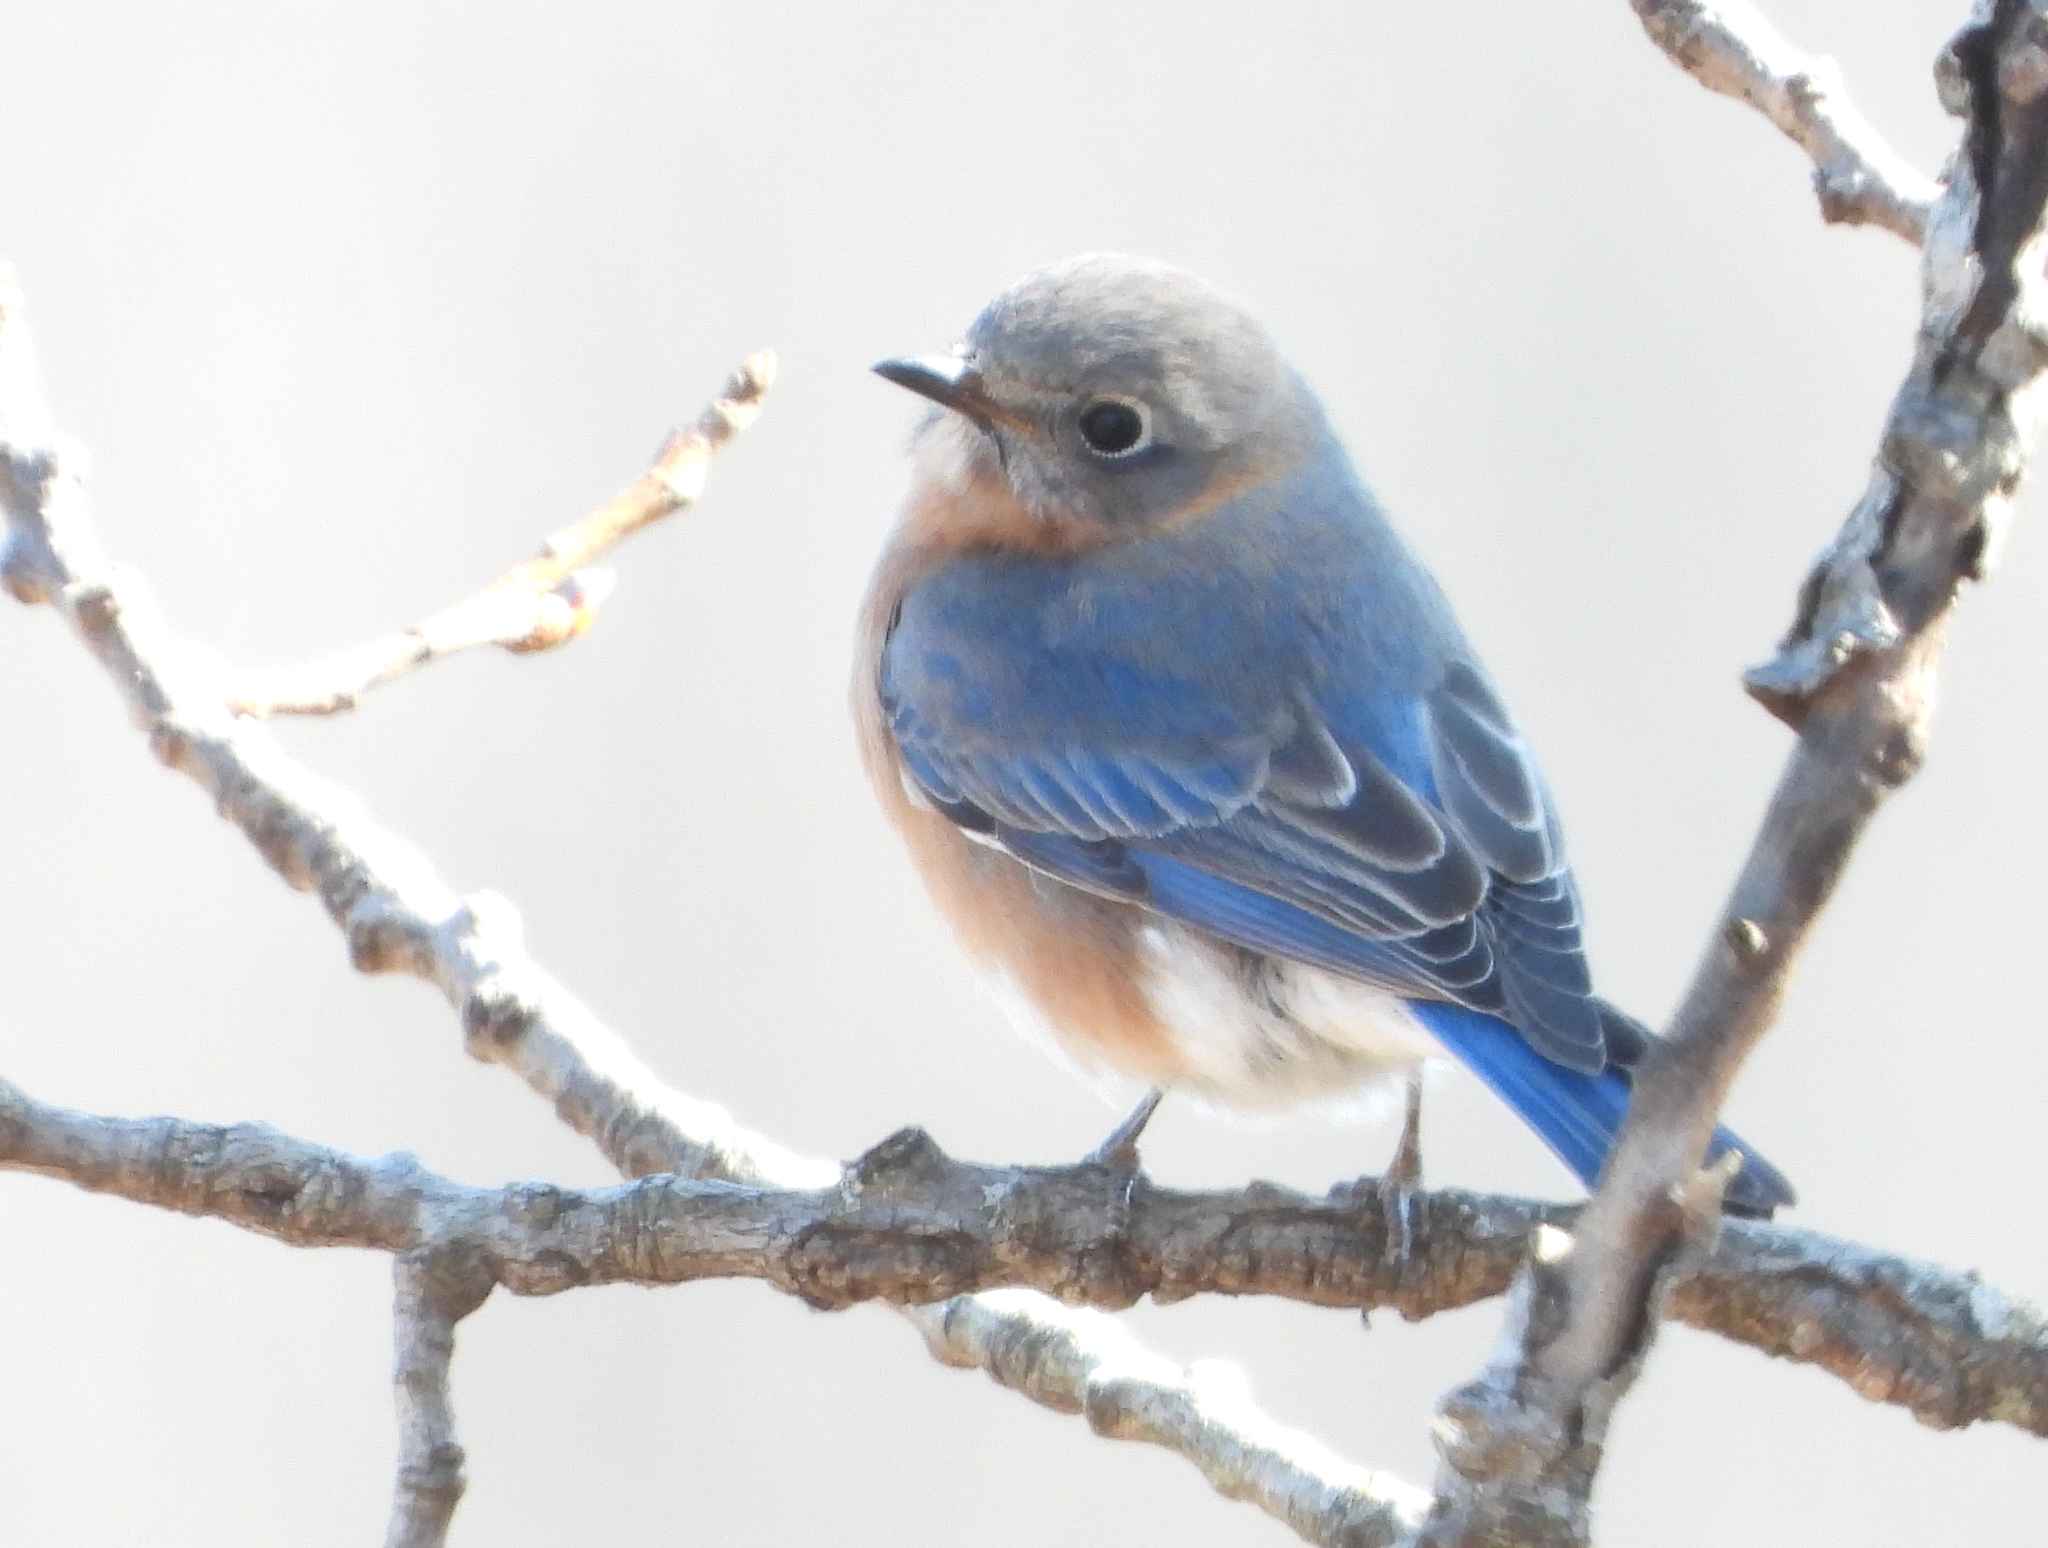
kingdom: Animalia
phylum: Chordata
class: Aves
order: Passeriformes
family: Turdidae
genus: Sialia
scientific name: Sialia sialis
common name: Eastern bluebird
